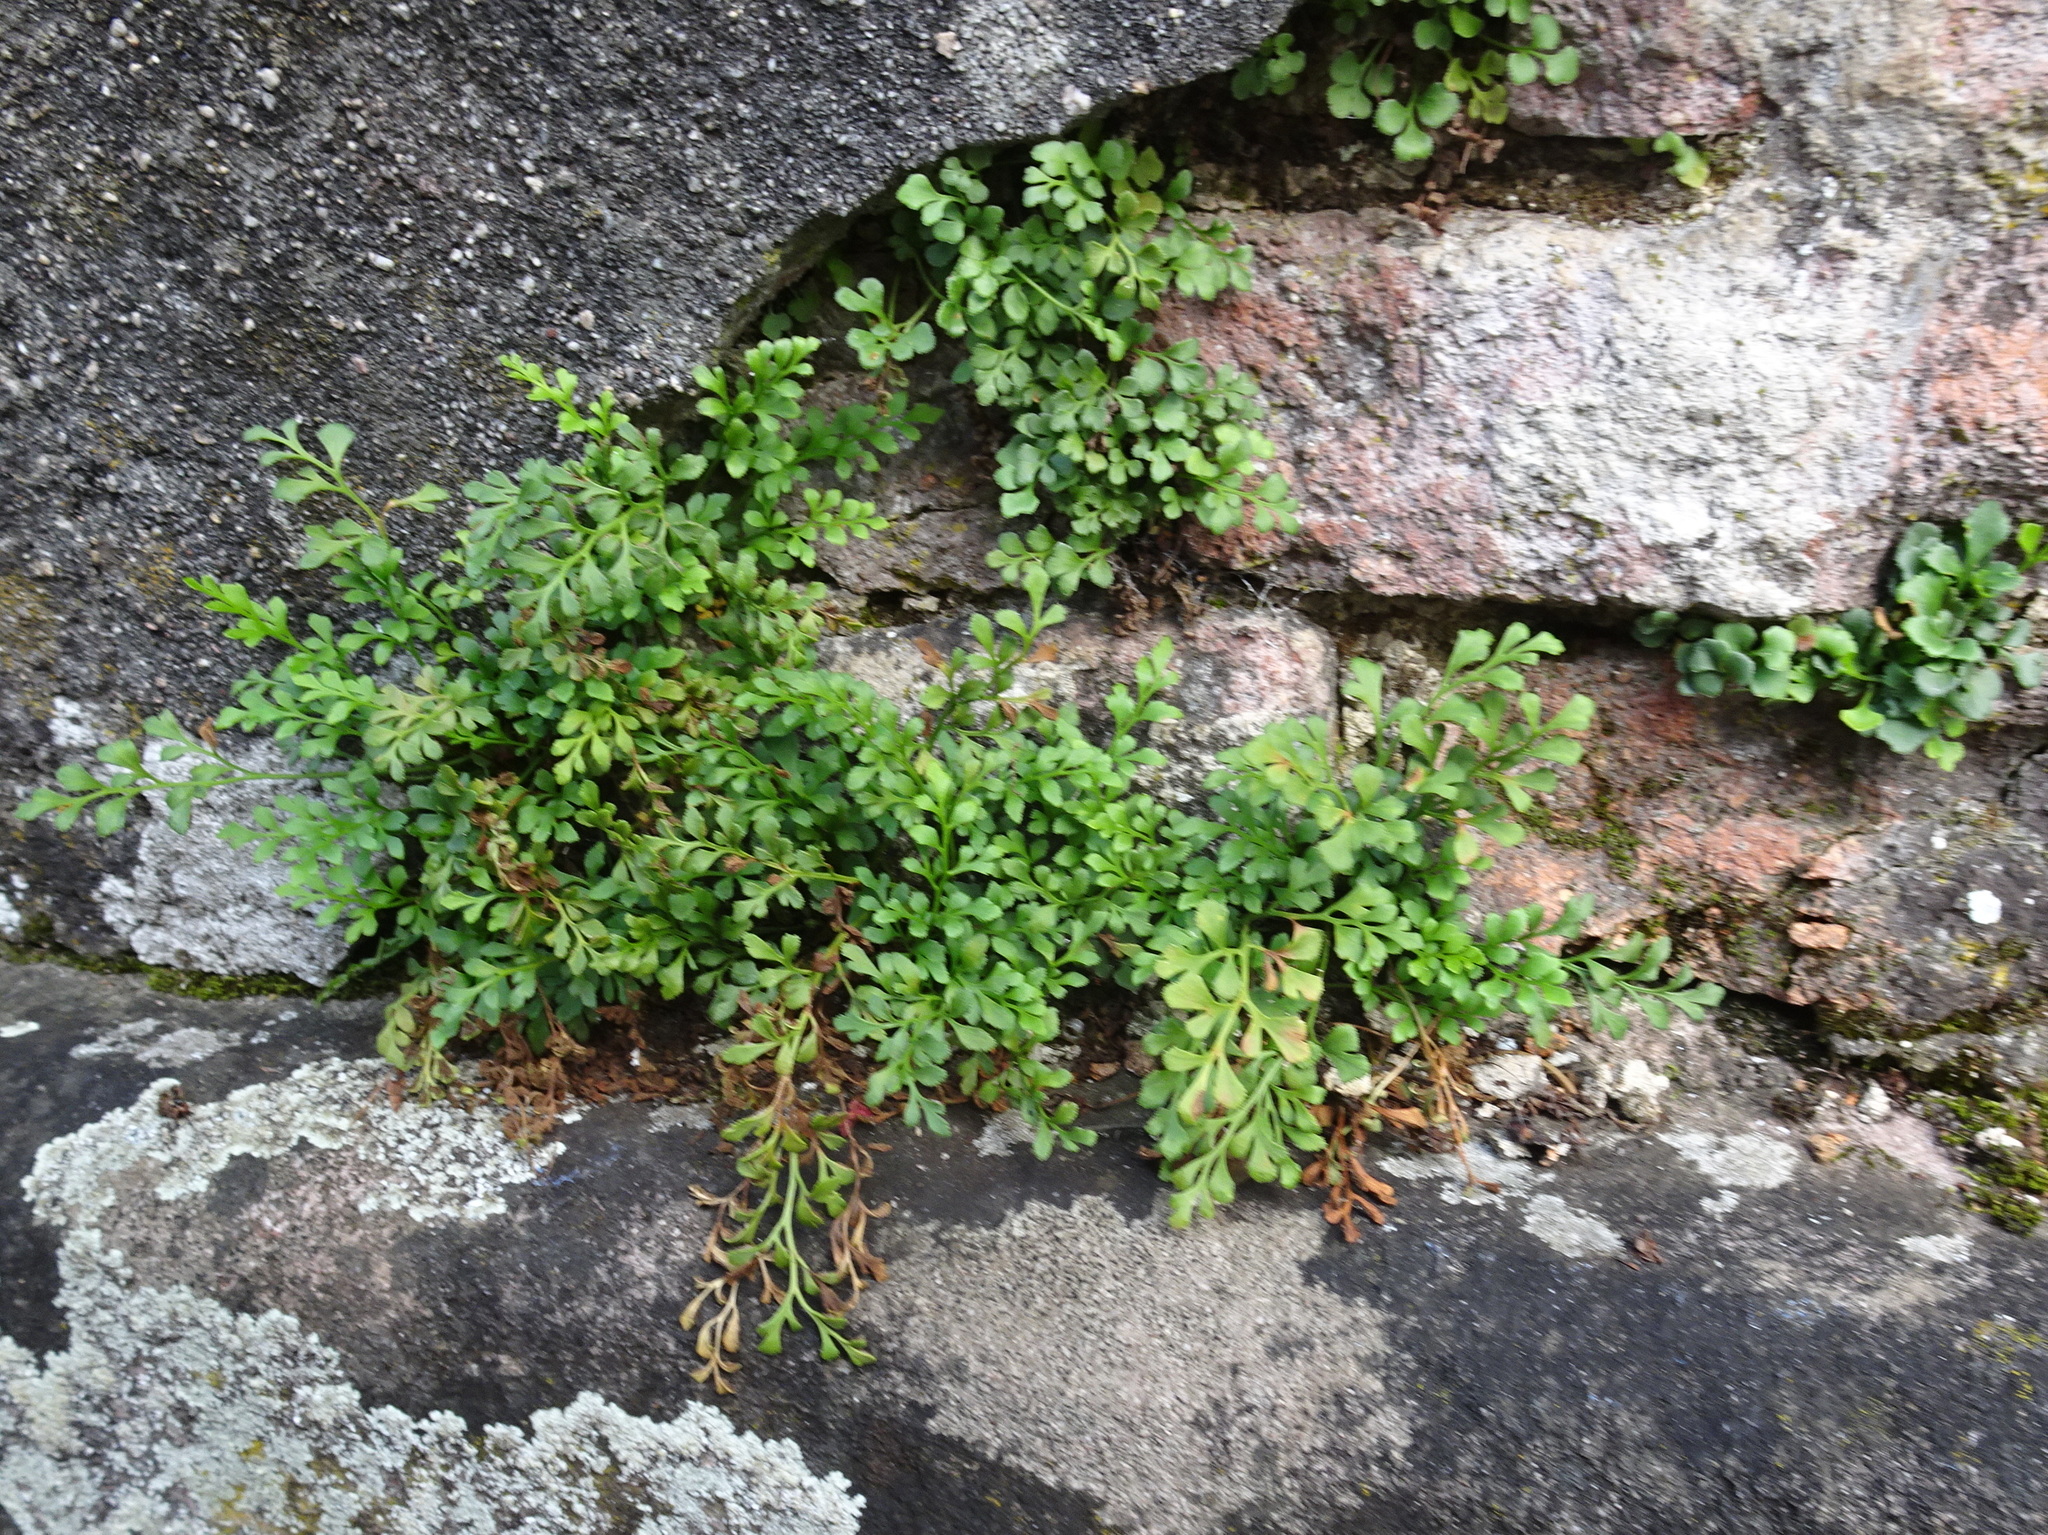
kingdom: Plantae
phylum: Tracheophyta
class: Polypodiopsida
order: Polypodiales
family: Aspleniaceae
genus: Asplenium
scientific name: Asplenium ruta-muraria
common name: Wall-rue
